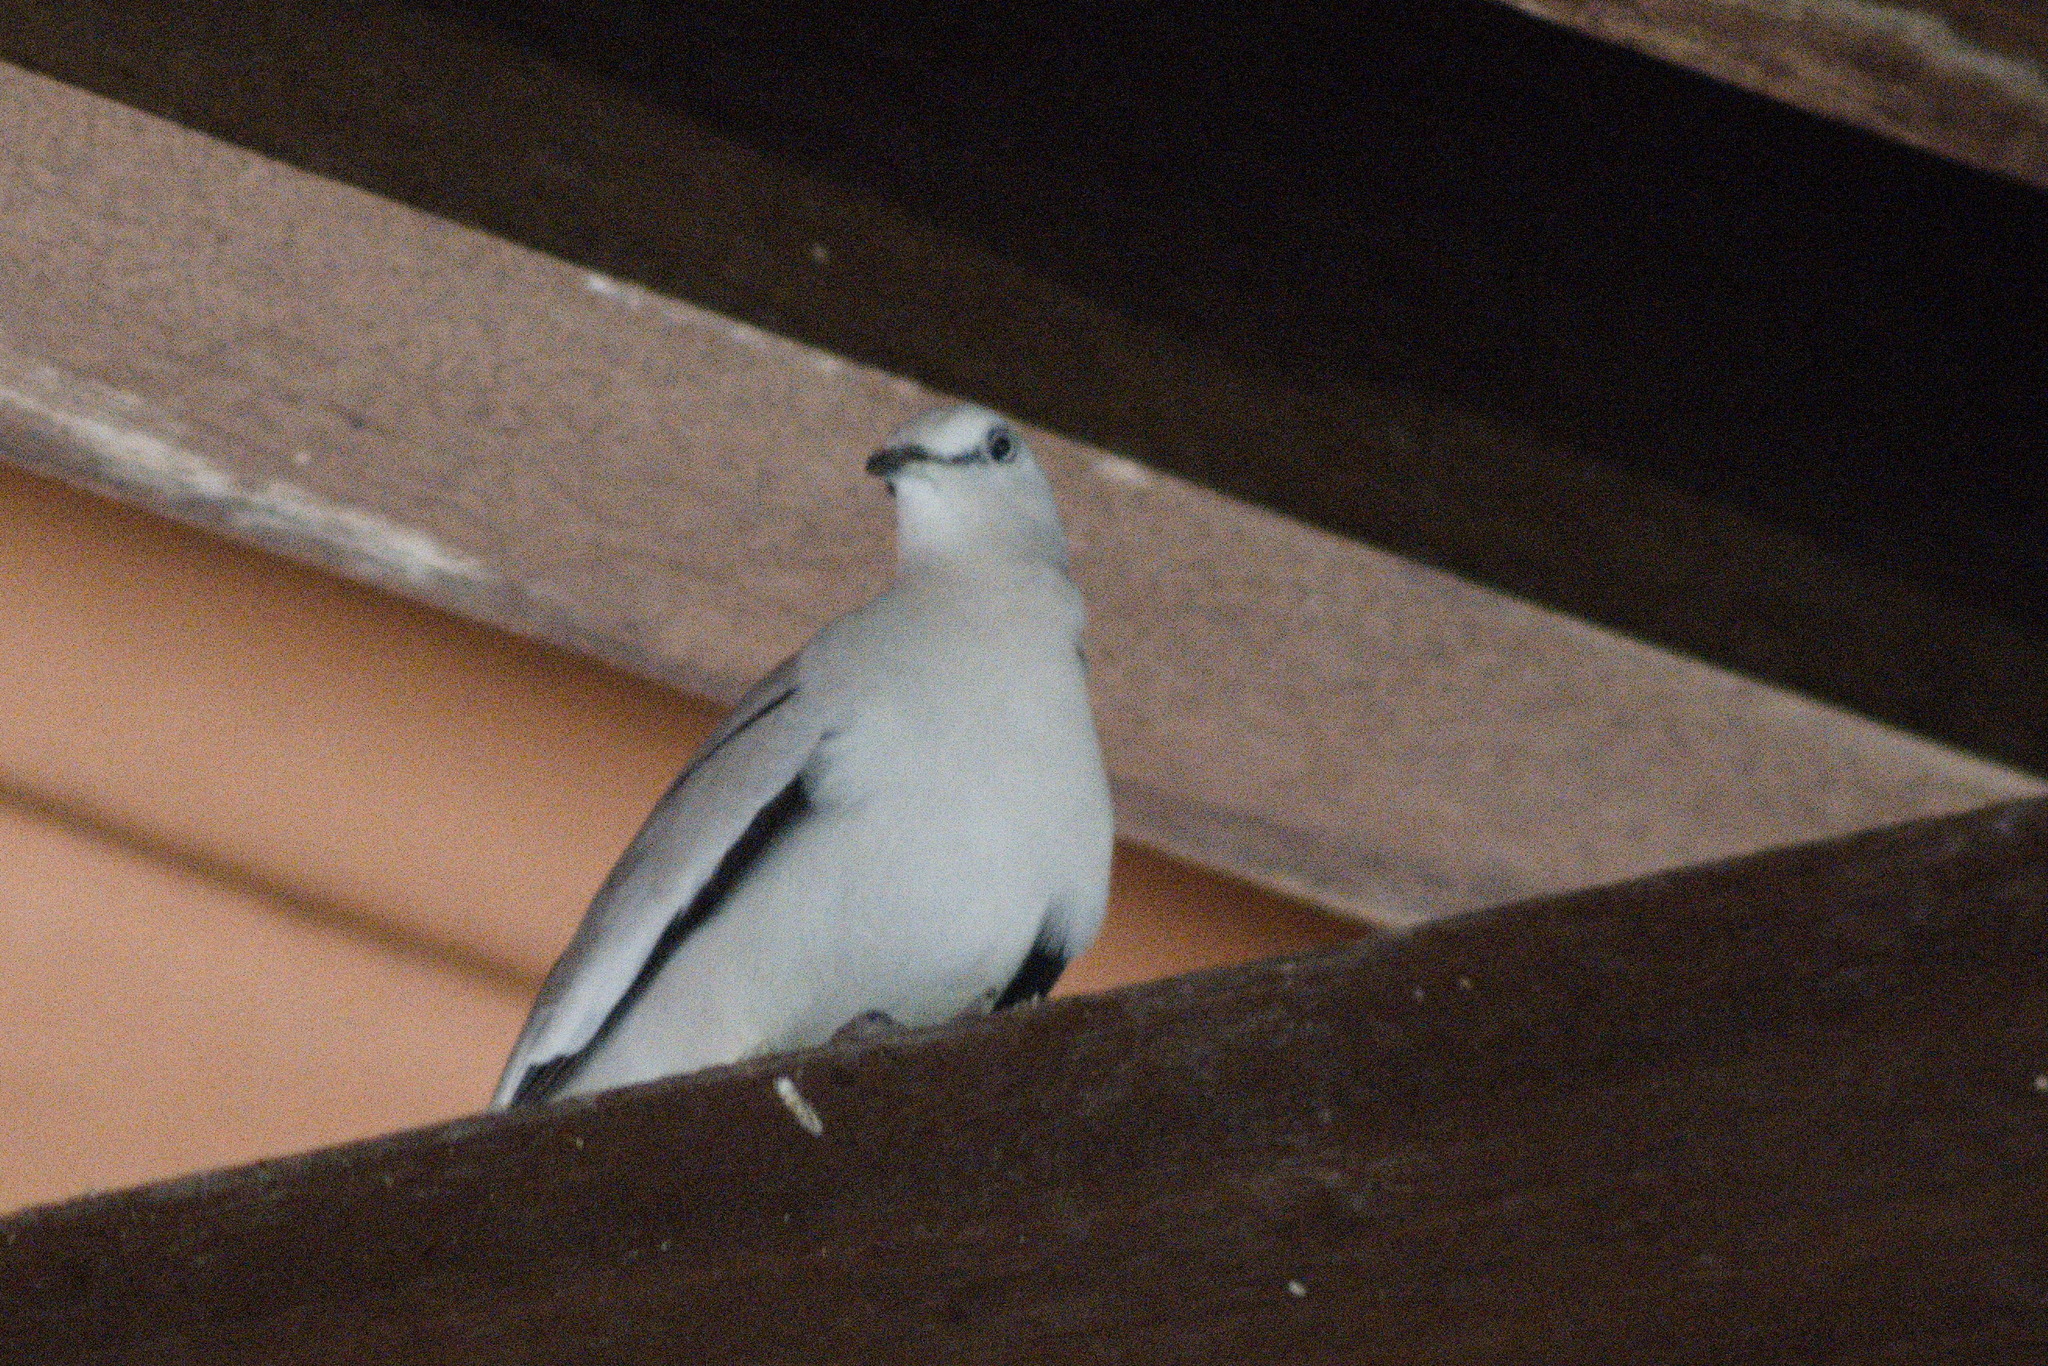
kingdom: Animalia
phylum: Chordata
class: Aves
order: Columbiformes
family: Columbidae
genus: Columbina
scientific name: Columbina picui
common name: Picui ground dove
